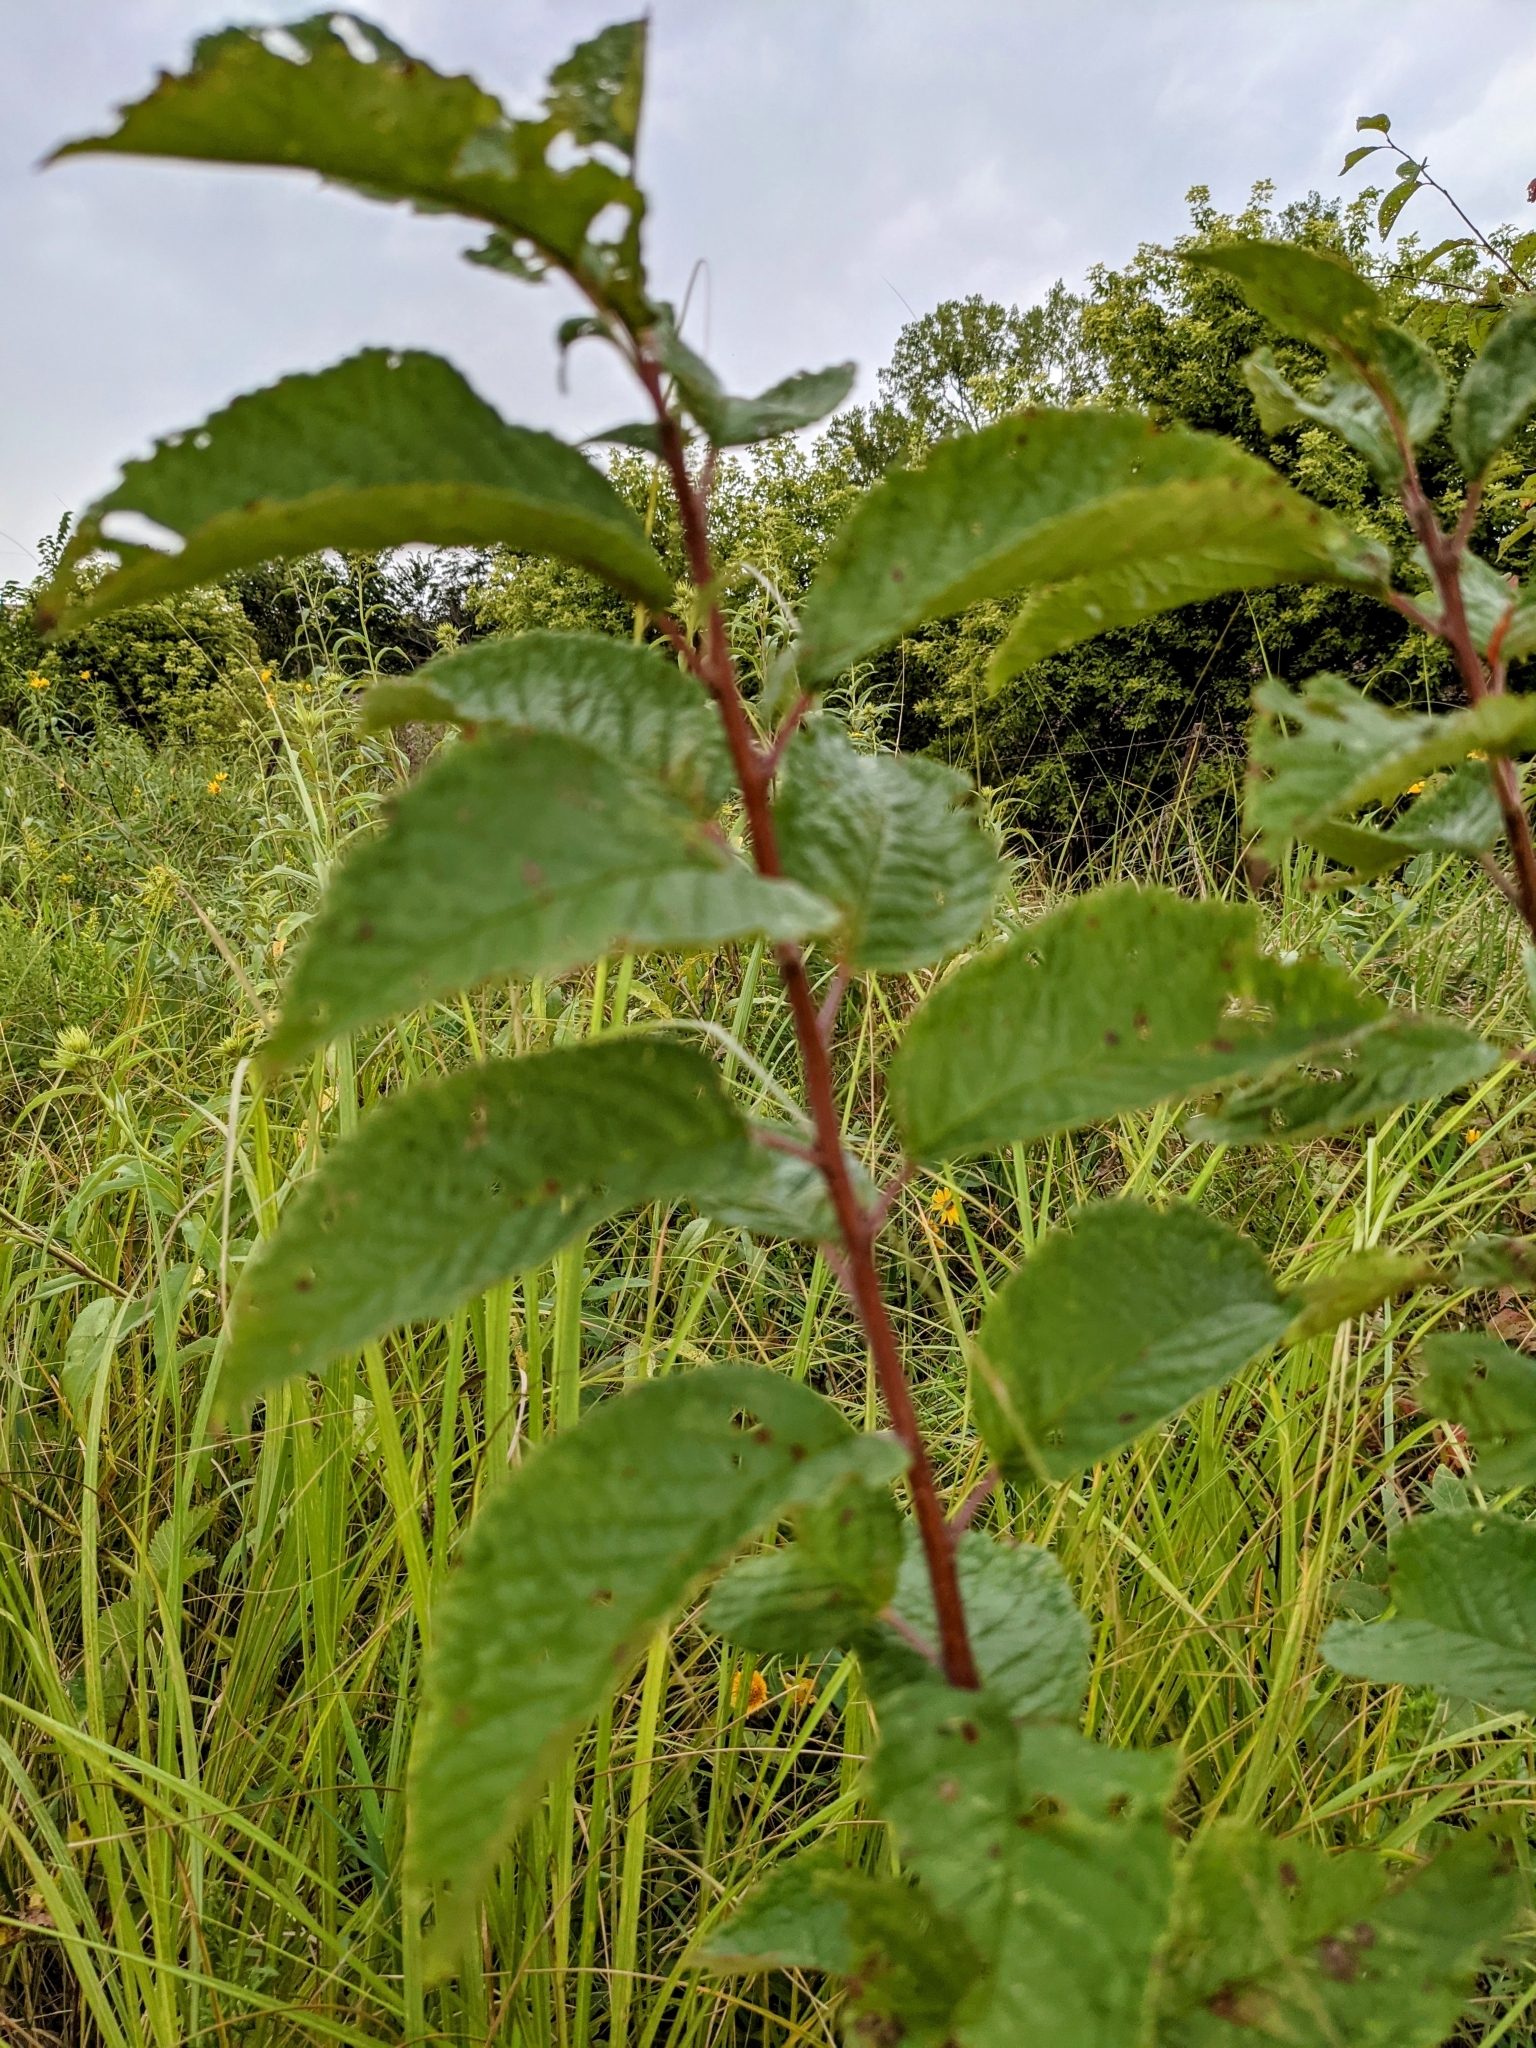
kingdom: Plantae
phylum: Tracheophyta
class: Magnoliopsida
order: Rosales
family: Rosaceae
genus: Prunus
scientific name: Prunus americana
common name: American plum
